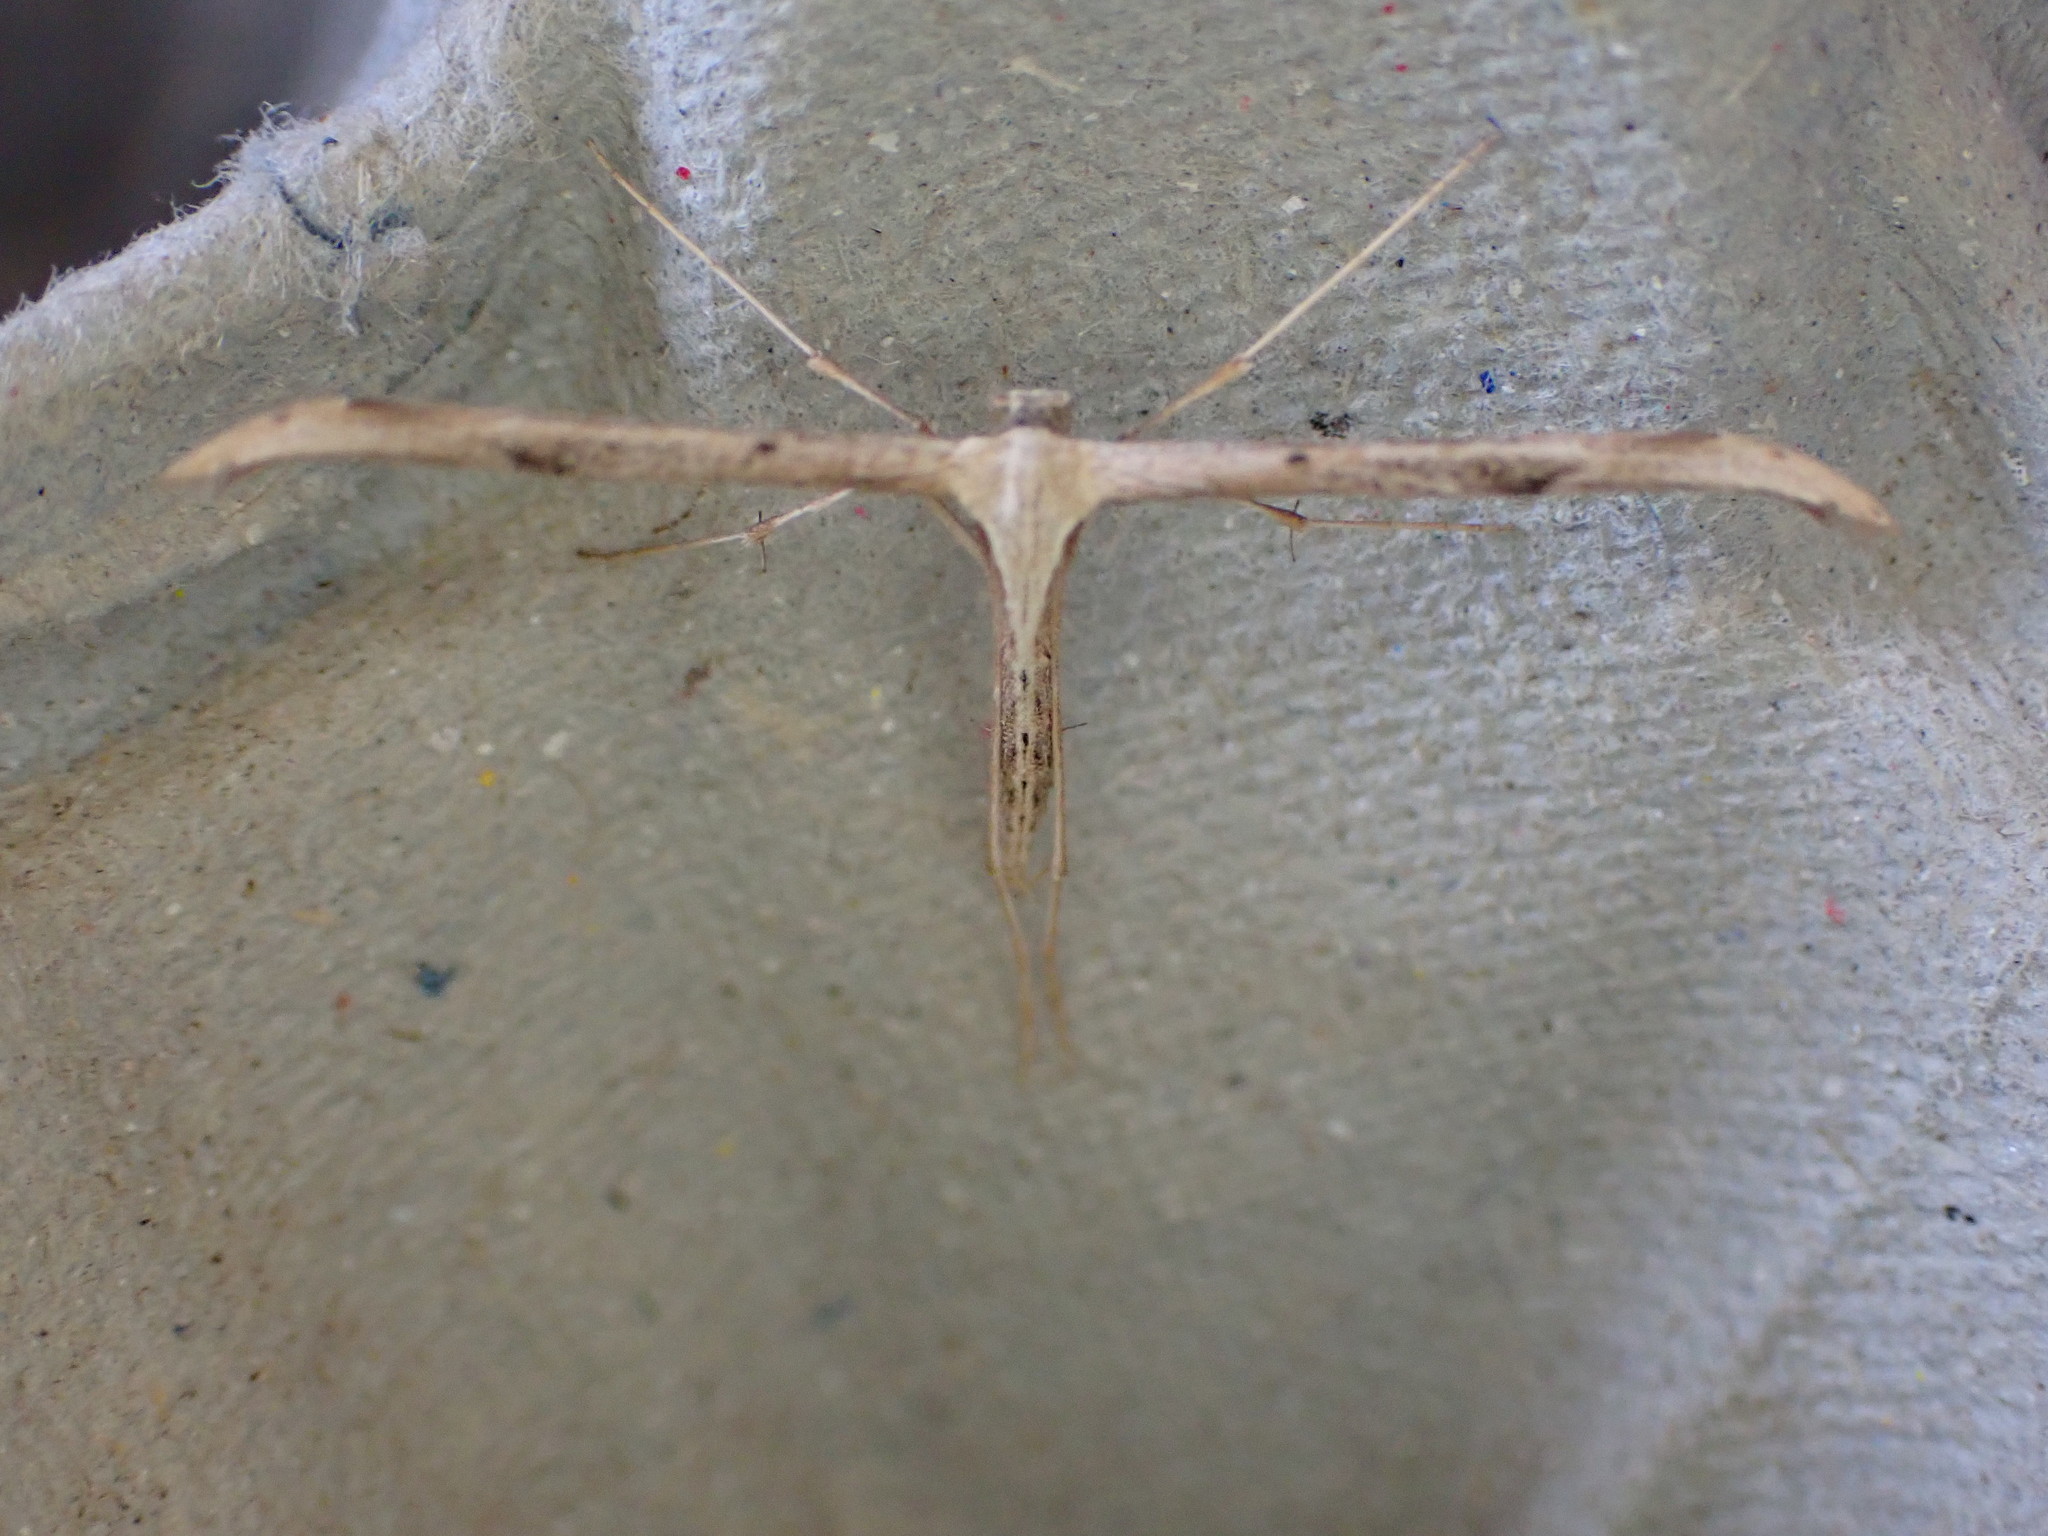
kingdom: Animalia
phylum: Arthropoda
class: Insecta
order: Lepidoptera
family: Pterophoridae
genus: Emmelina
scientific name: Emmelina monodactyla
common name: Common plume
